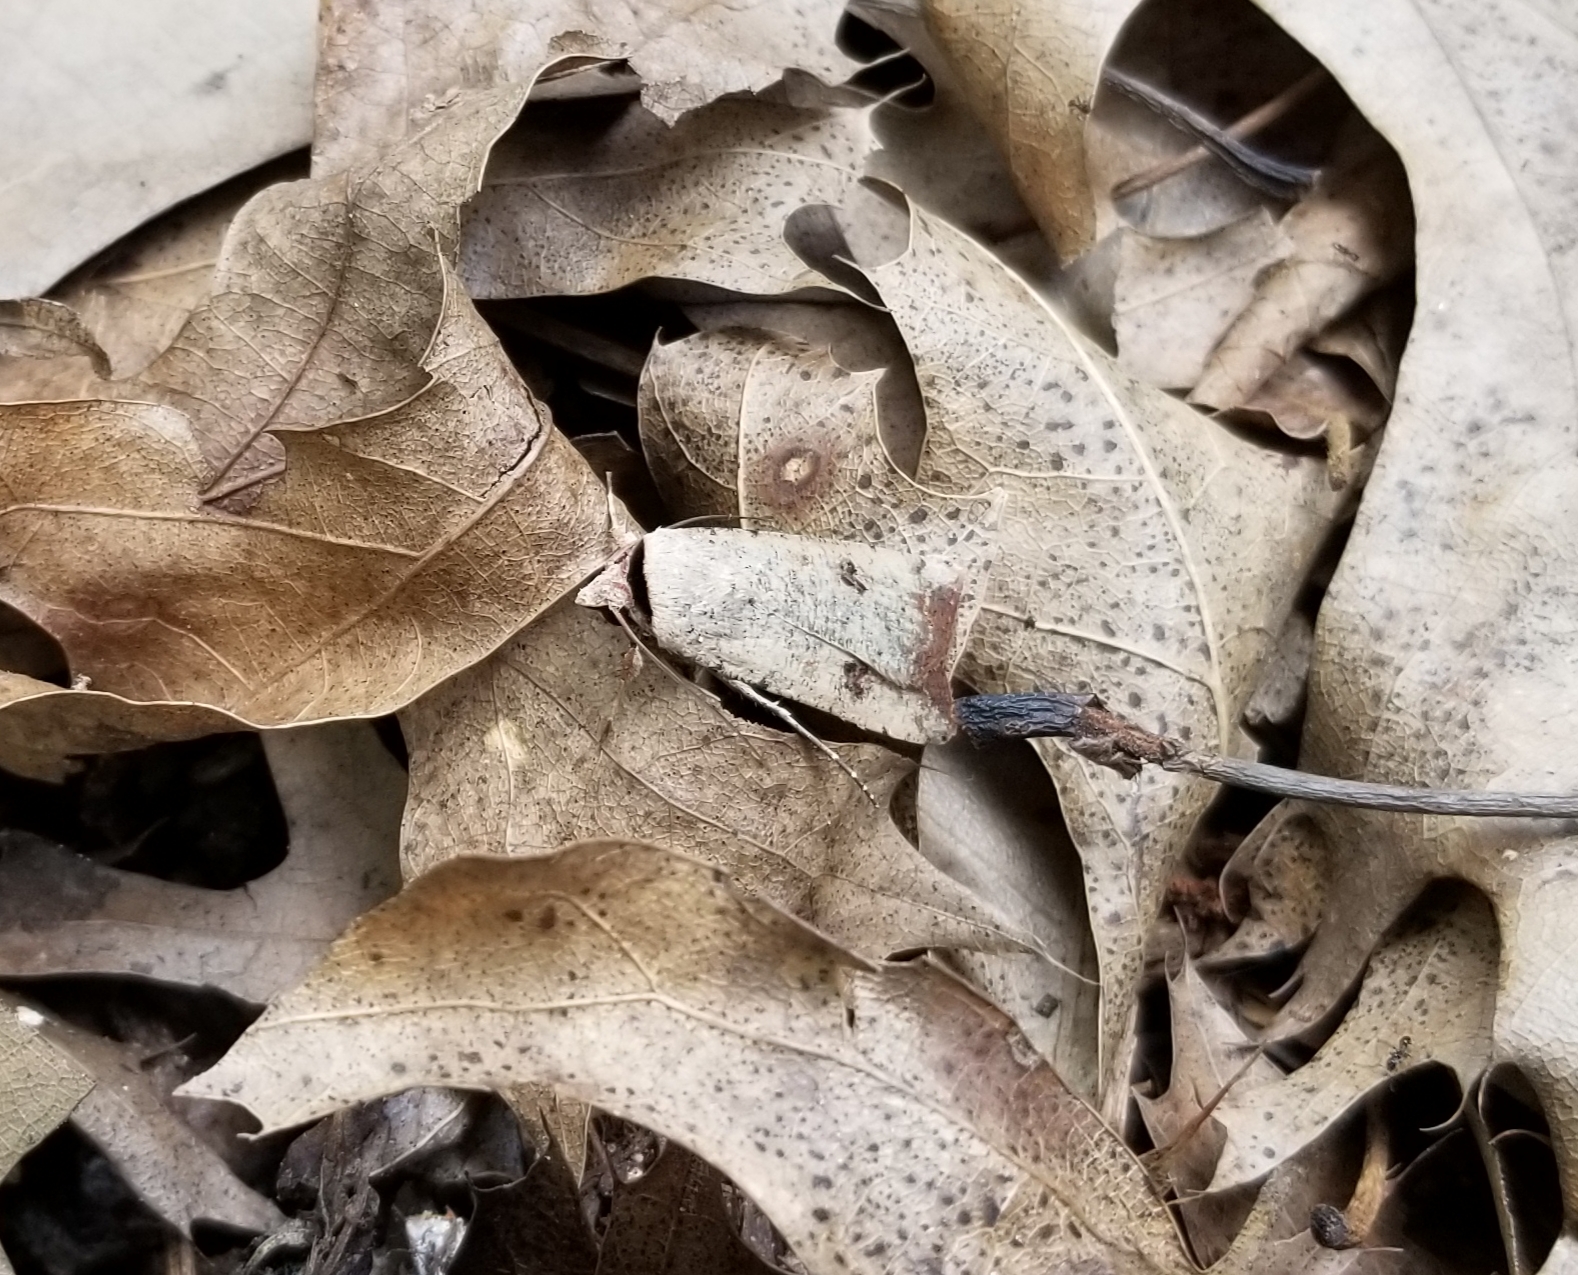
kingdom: Animalia
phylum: Arthropoda
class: Insecta
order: Lepidoptera
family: Noctuidae
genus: Anicla
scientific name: Anicla infecta
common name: Green cutworm
